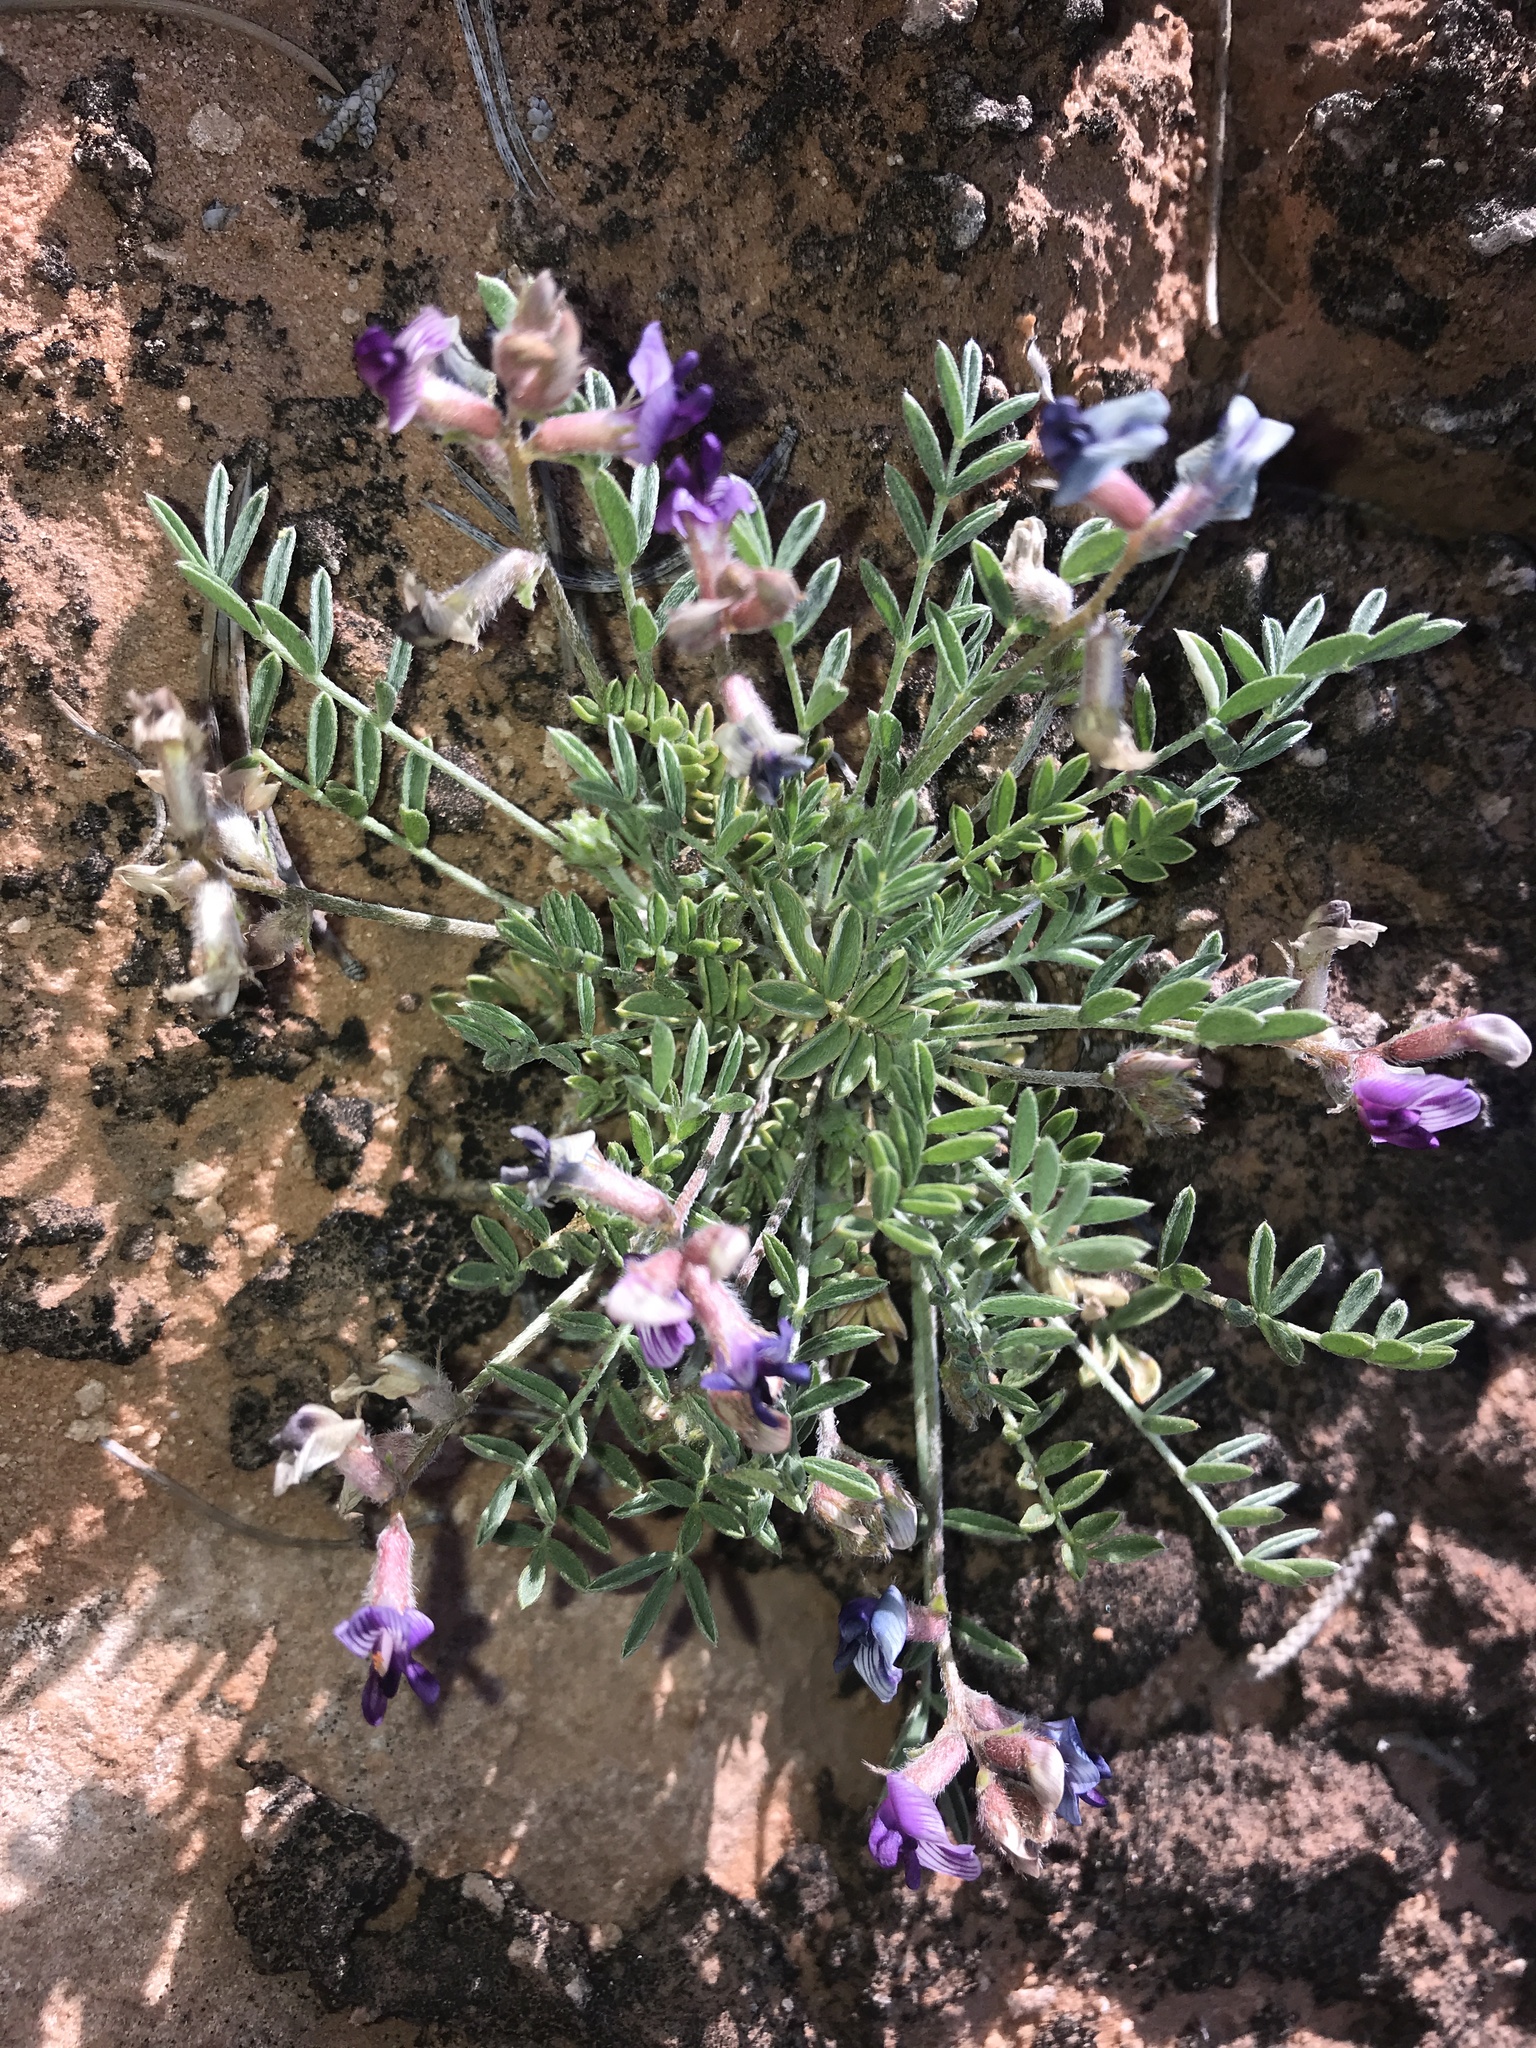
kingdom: Plantae
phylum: Tracheophyta
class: Magnoliopsida
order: Fabales
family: Fabaceae
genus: Astragalus
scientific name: Astragalus desperatus
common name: Rimrock milk-vetch
